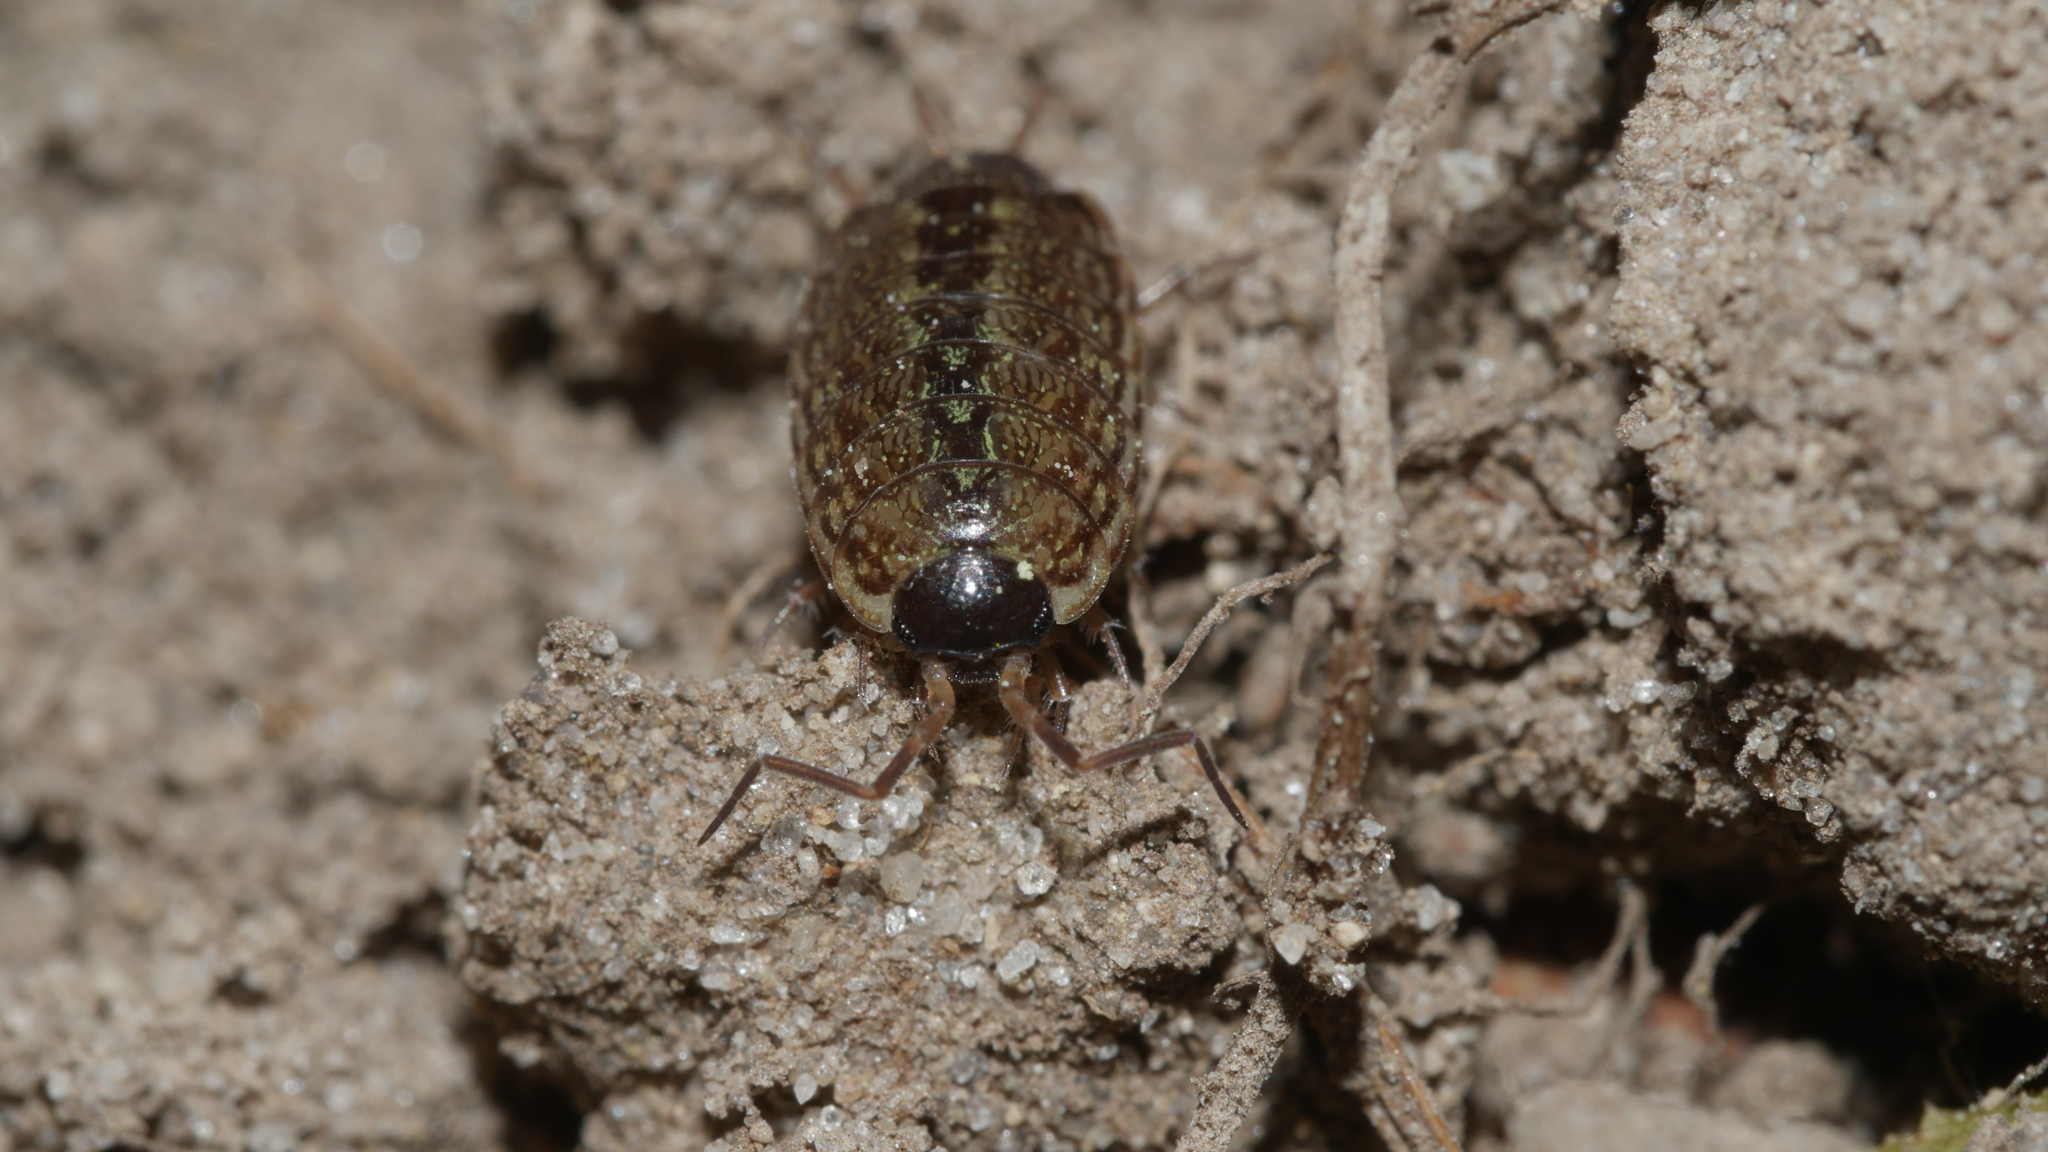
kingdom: Animalia
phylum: Arthropoda
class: Malacostraca
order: Isopoda
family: Philosciidae
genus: Philoscia
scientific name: Philoscia muscorum
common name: Common striped woodlouse
